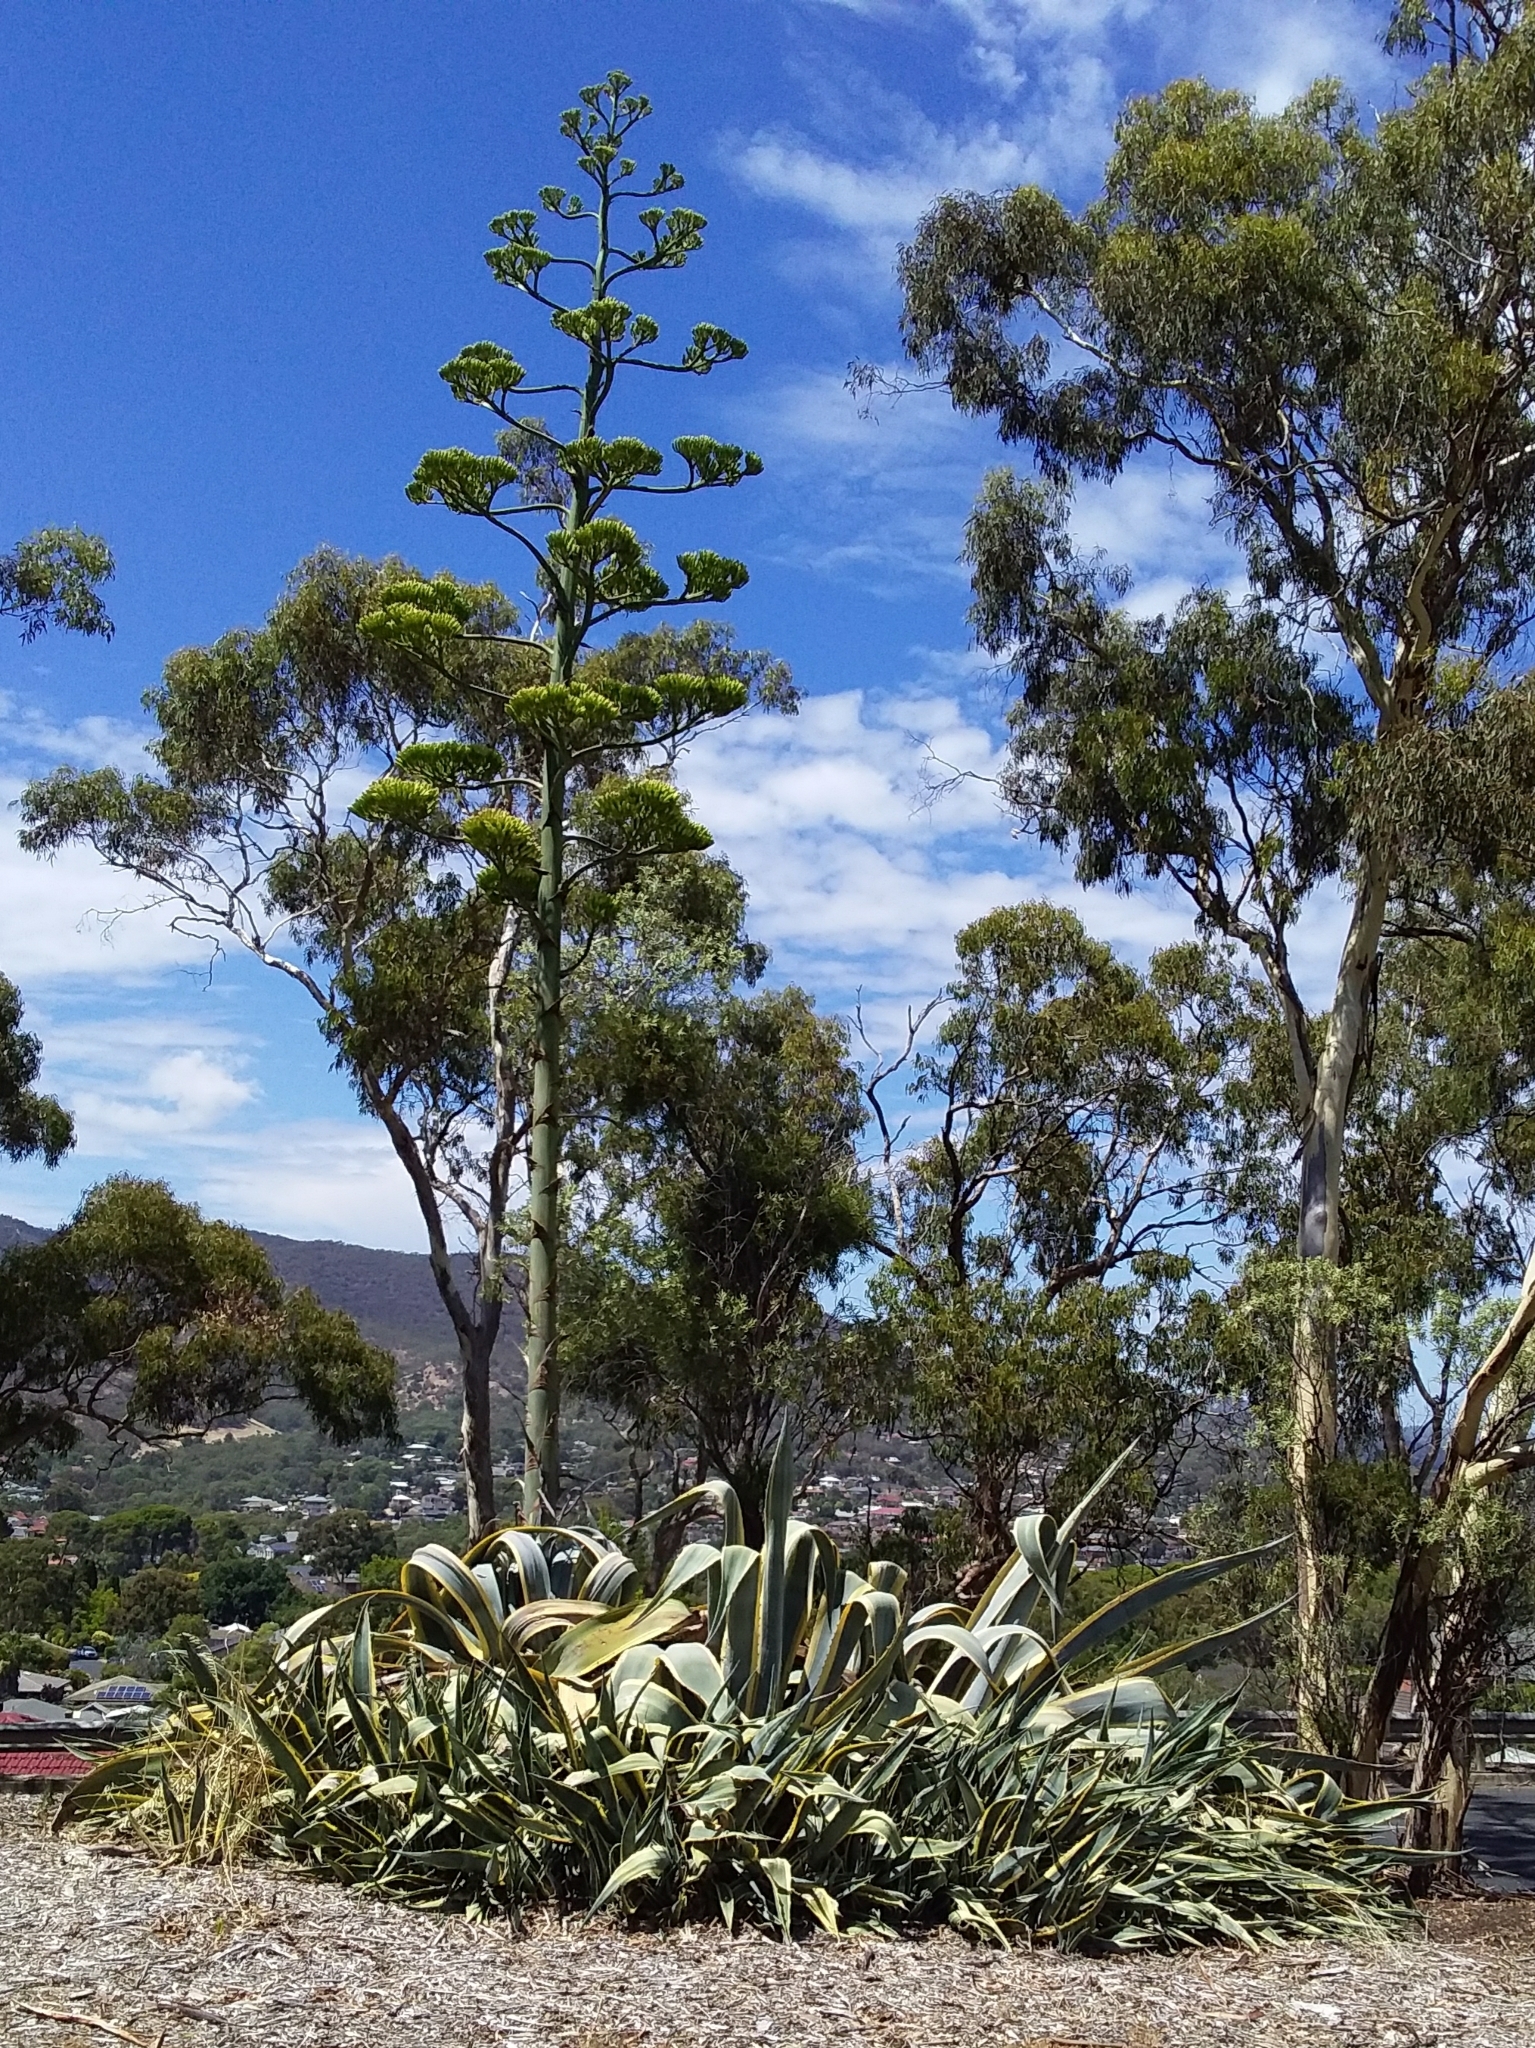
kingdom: Plantae
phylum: Tracheophyta
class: Liliopsida
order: Asparagales
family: Asparagaceae
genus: Agave
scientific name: Agave americana
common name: Centuryplant
